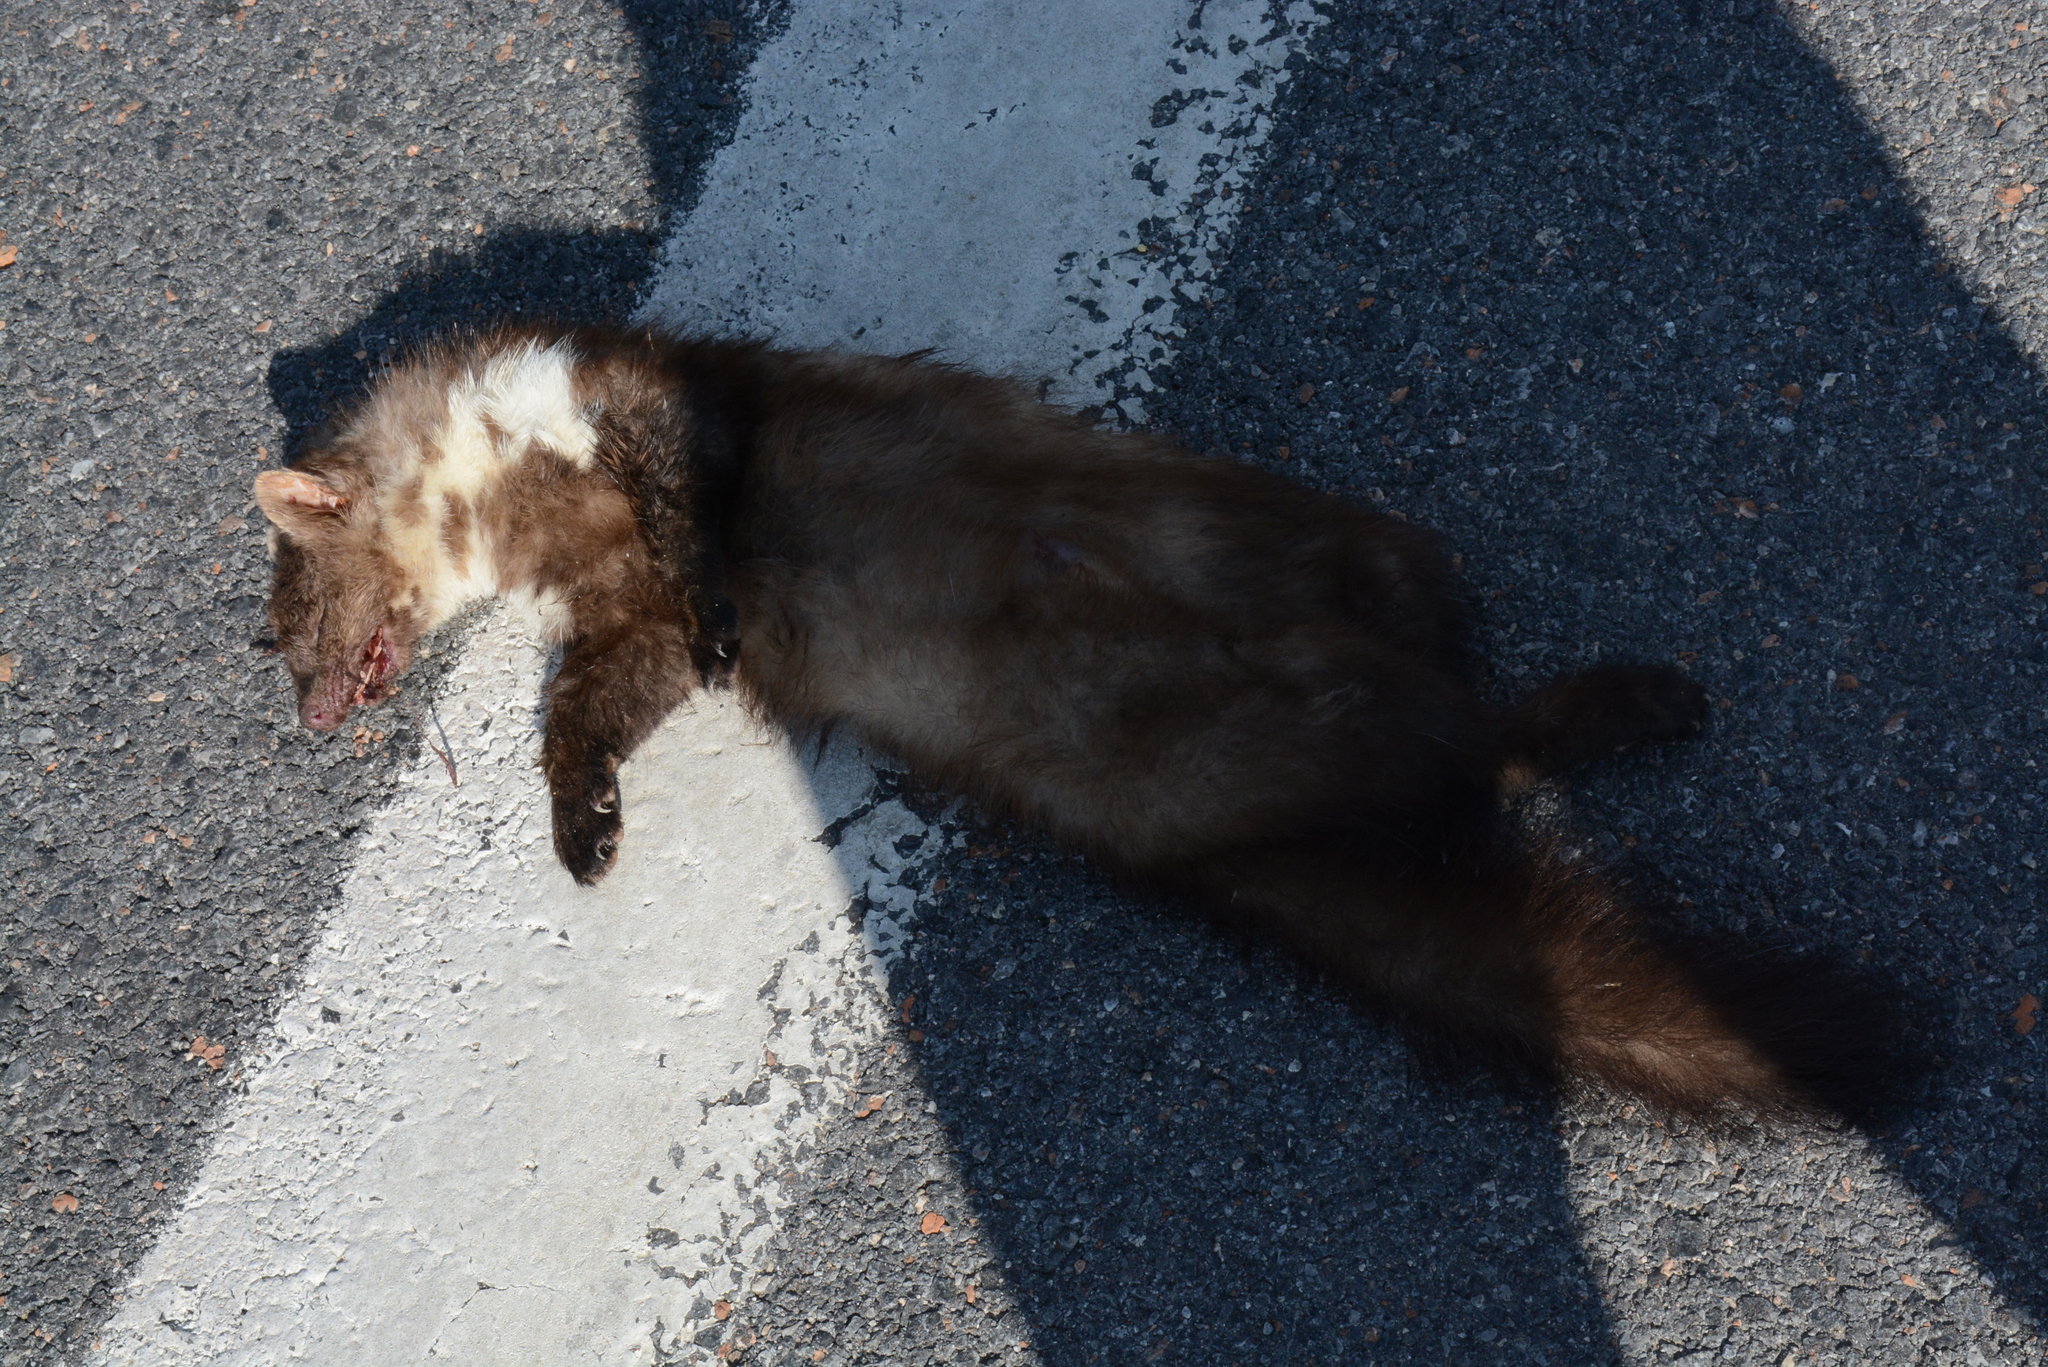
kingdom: Animalia
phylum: Chordata
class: Mammalia
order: Carnivora
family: Mustelidae
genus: Martes
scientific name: Martes foina
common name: Beech marten
